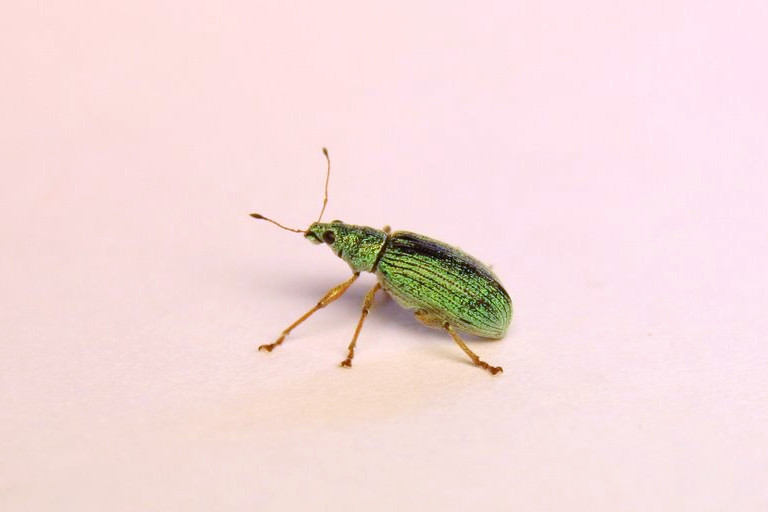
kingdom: Animalia
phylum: Arthropoda
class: Insecta
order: Coleoptera
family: Curculionidae
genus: Polydrusus
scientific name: Polydrusus formosus
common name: Weevil
